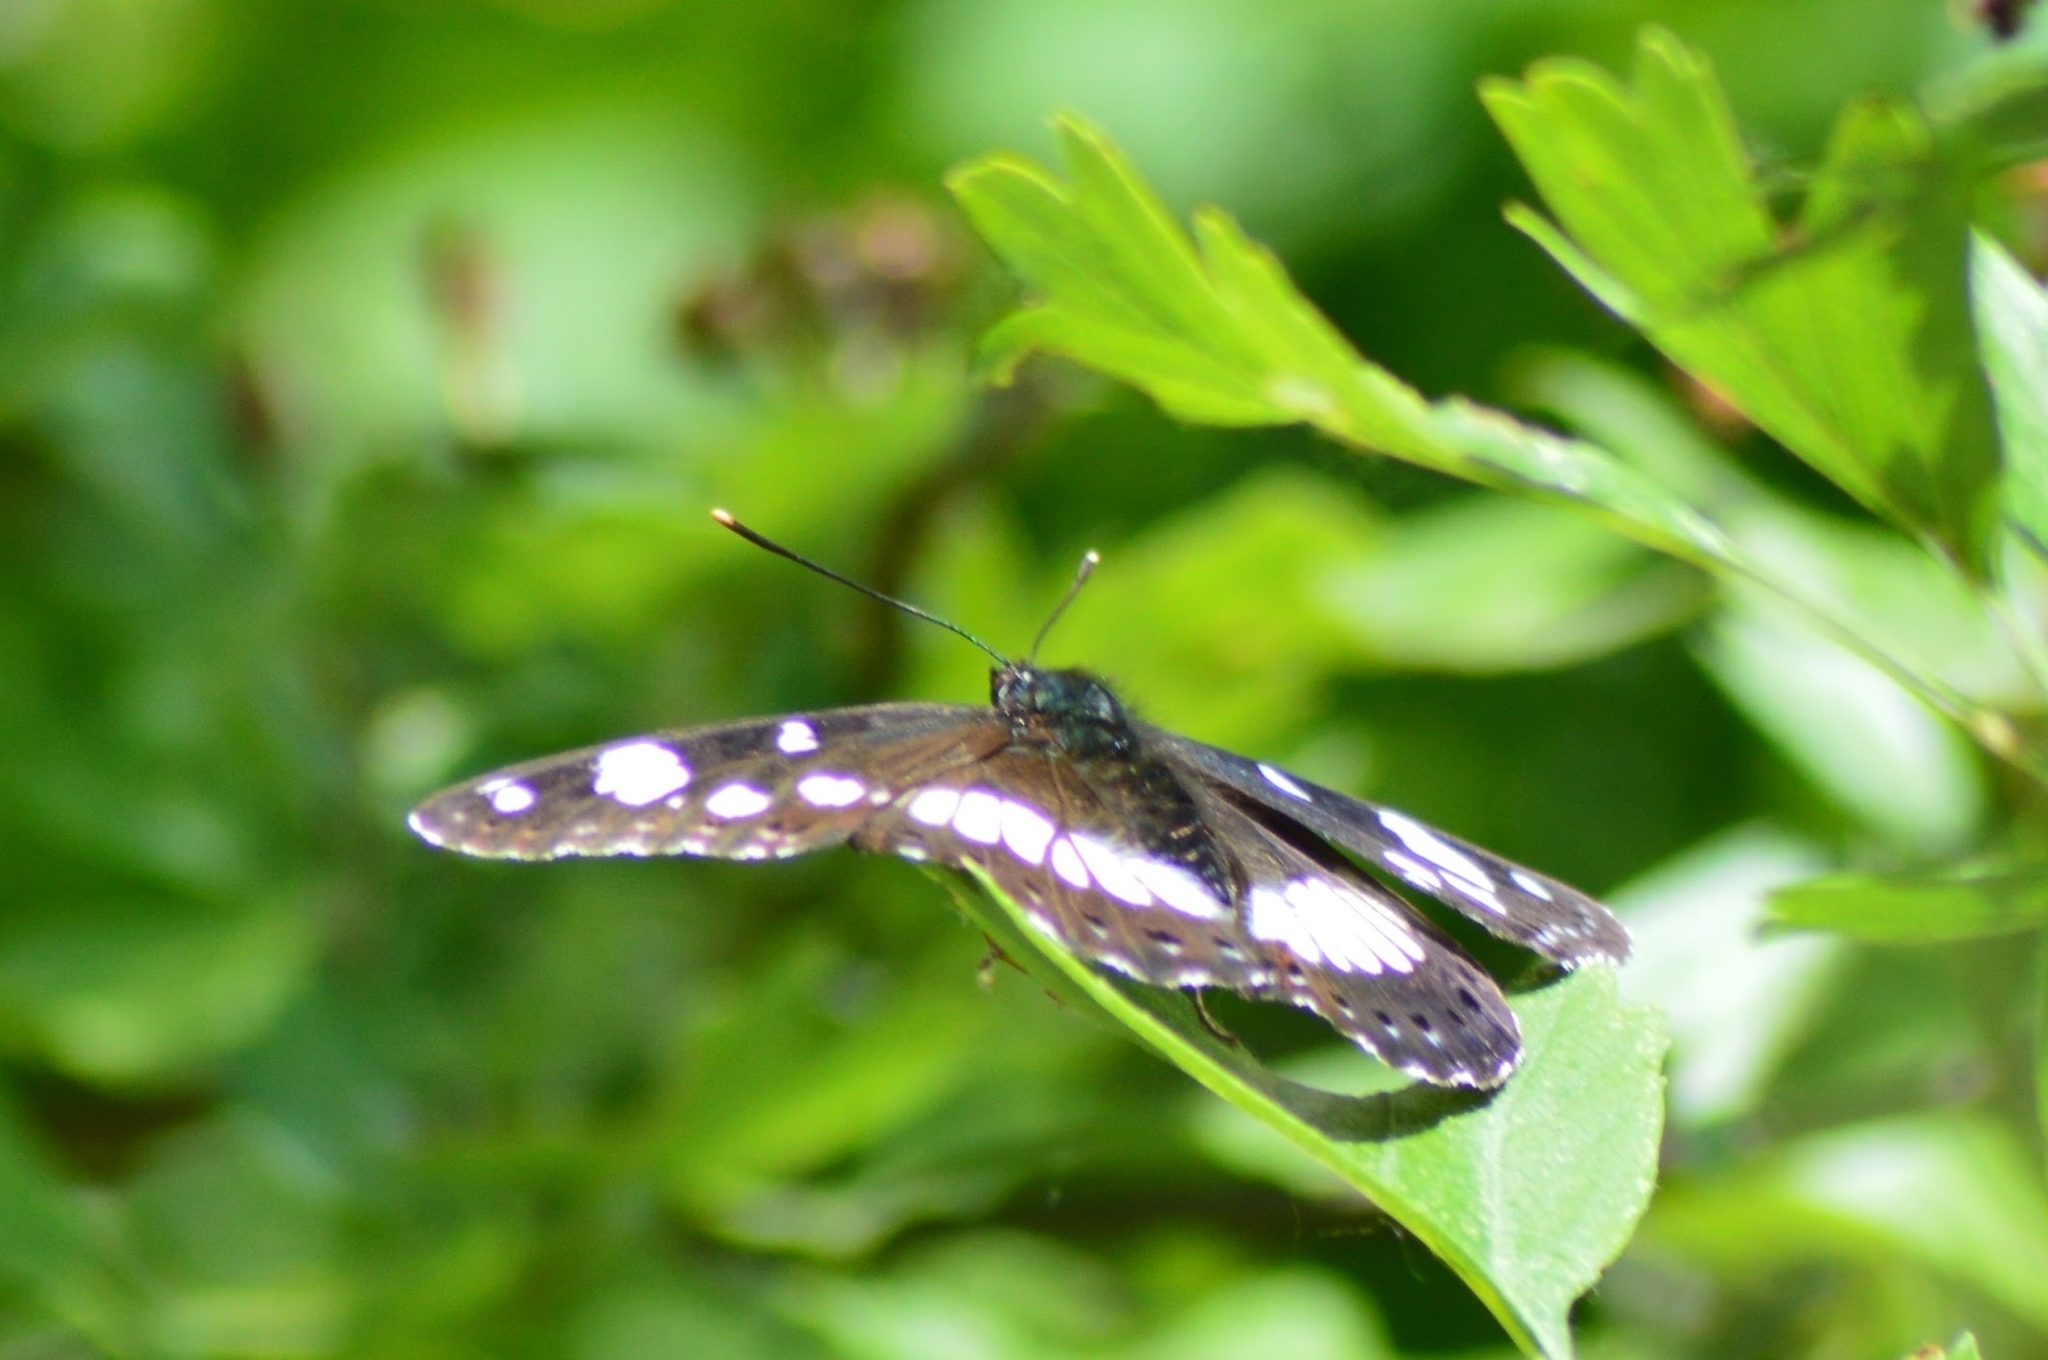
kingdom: Animalia
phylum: Arthropoda
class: Insecta
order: Lepidoptera
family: Nymphalidae
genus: Limenitis
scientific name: Limenitis reducta
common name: Southern white admiral
